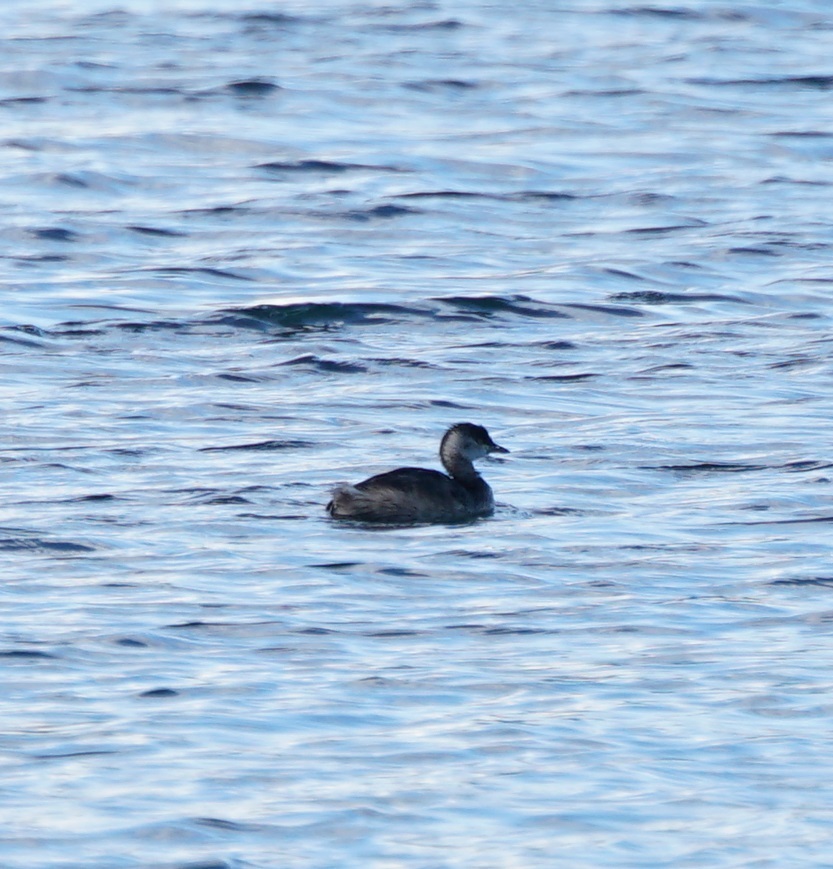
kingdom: Animalia
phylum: Chordata
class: Aves
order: Podicipediformes
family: Podicipedidae
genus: Poliocephalus
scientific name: Poliocephalus poliocephalus
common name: Hoary-headed grebe
